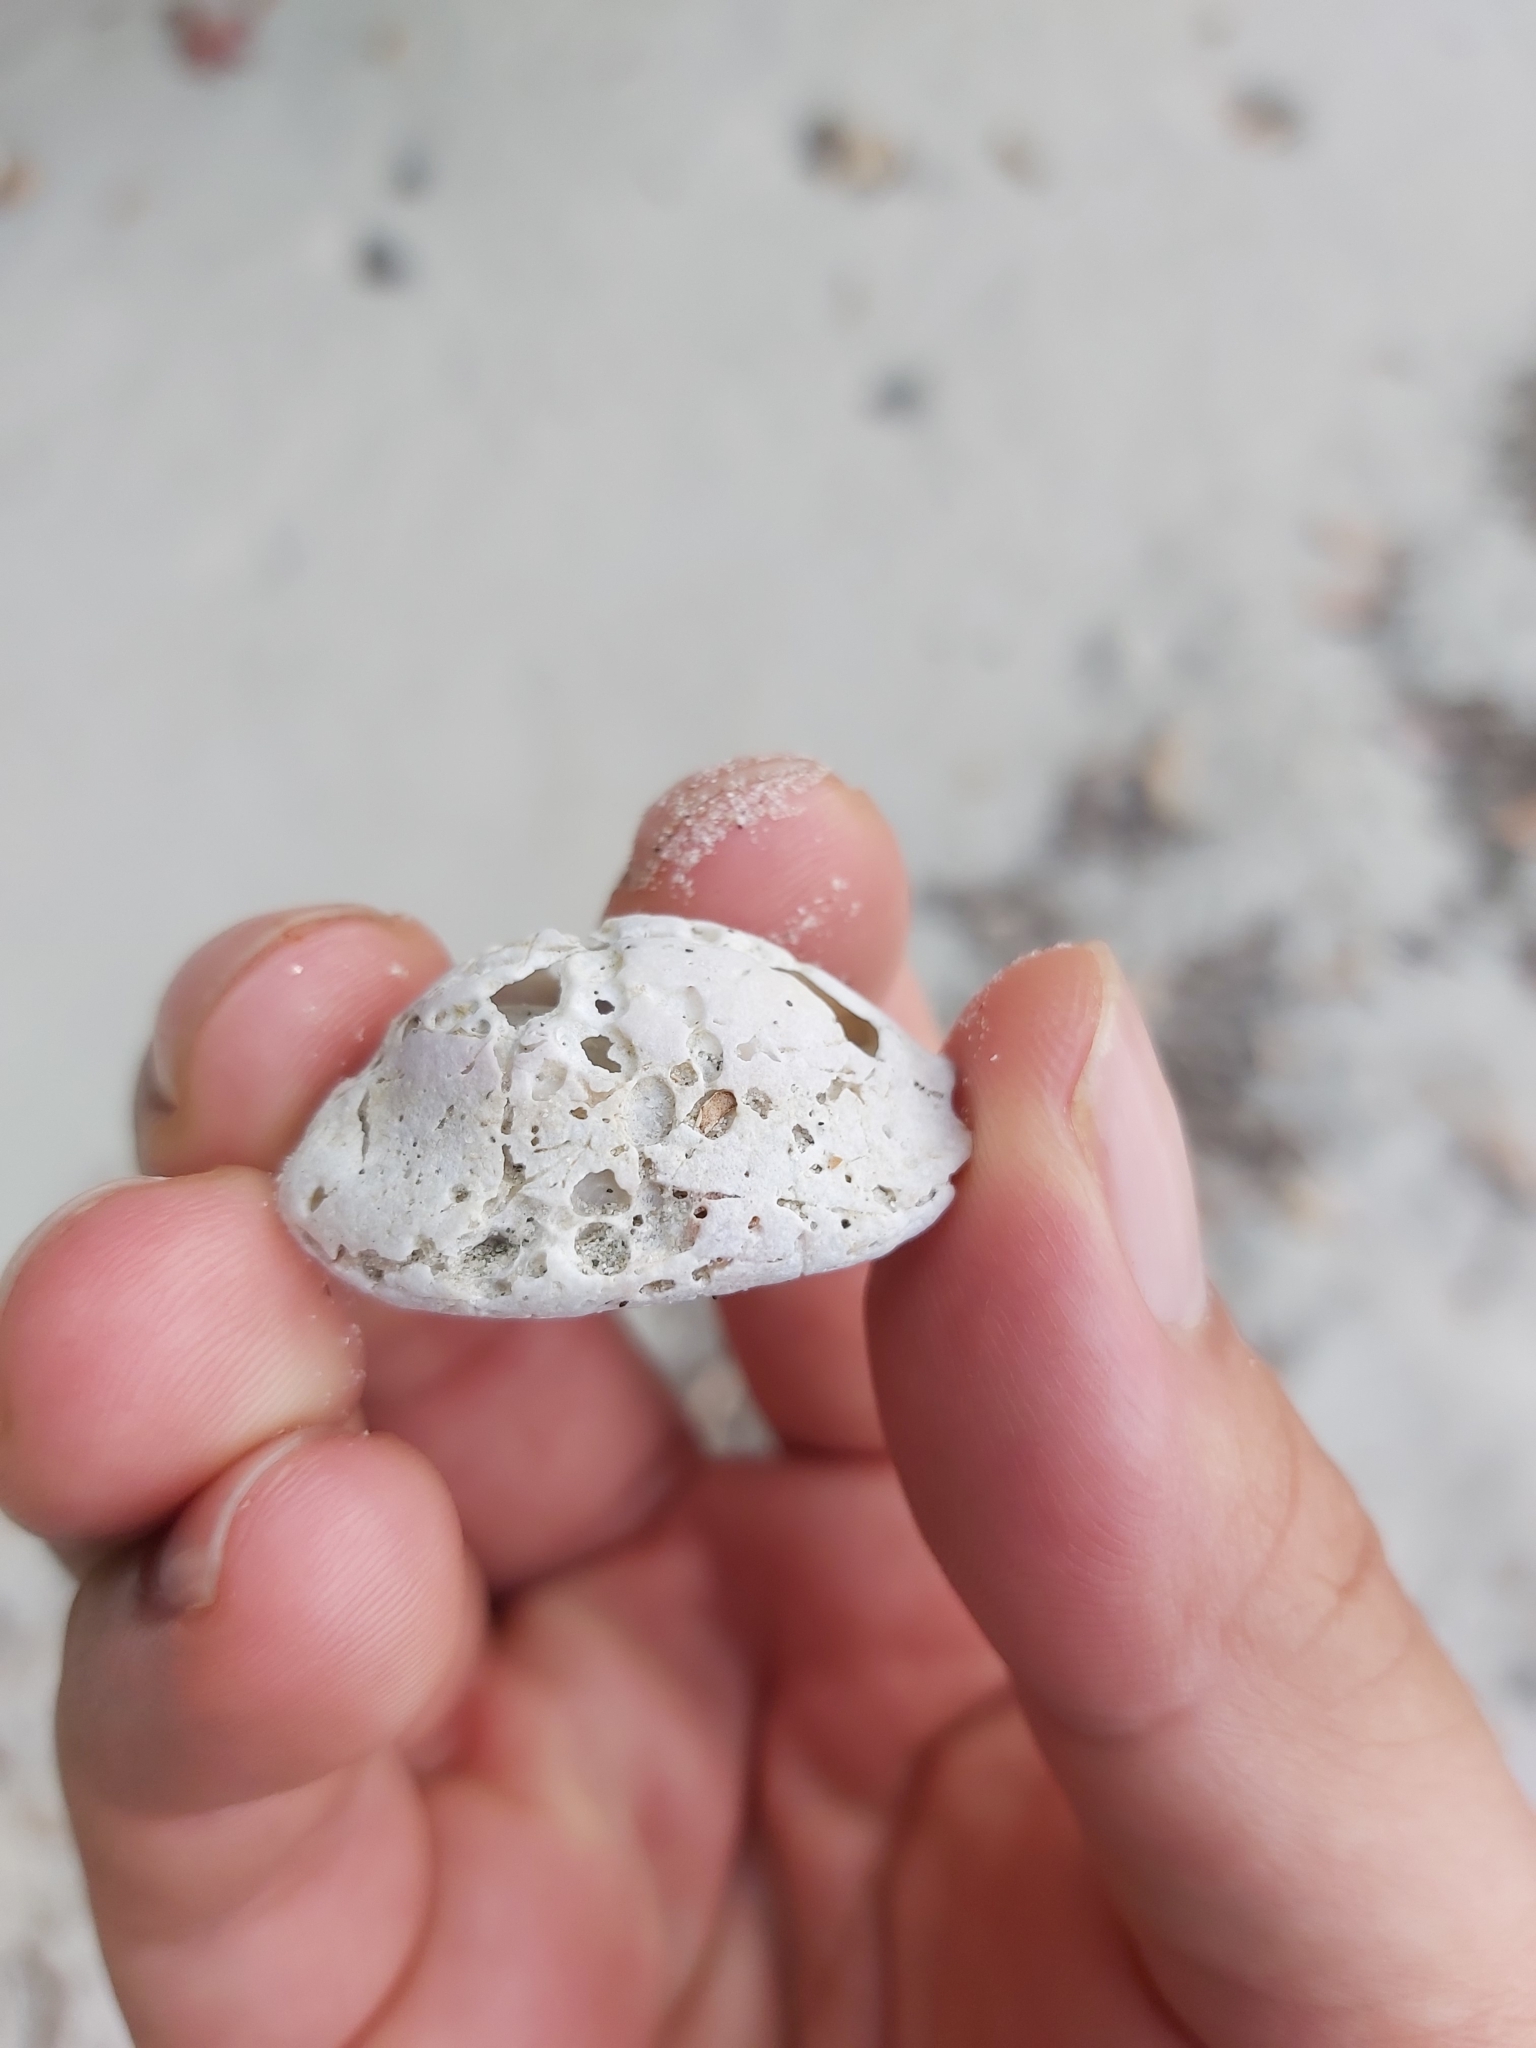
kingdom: Animalia
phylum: Mollusca
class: Gastropoda
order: Littorinimorpha
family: Cypraeidae
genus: Monetaria
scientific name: Monetaria caputserpentis
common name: Serpent's head cowrie
